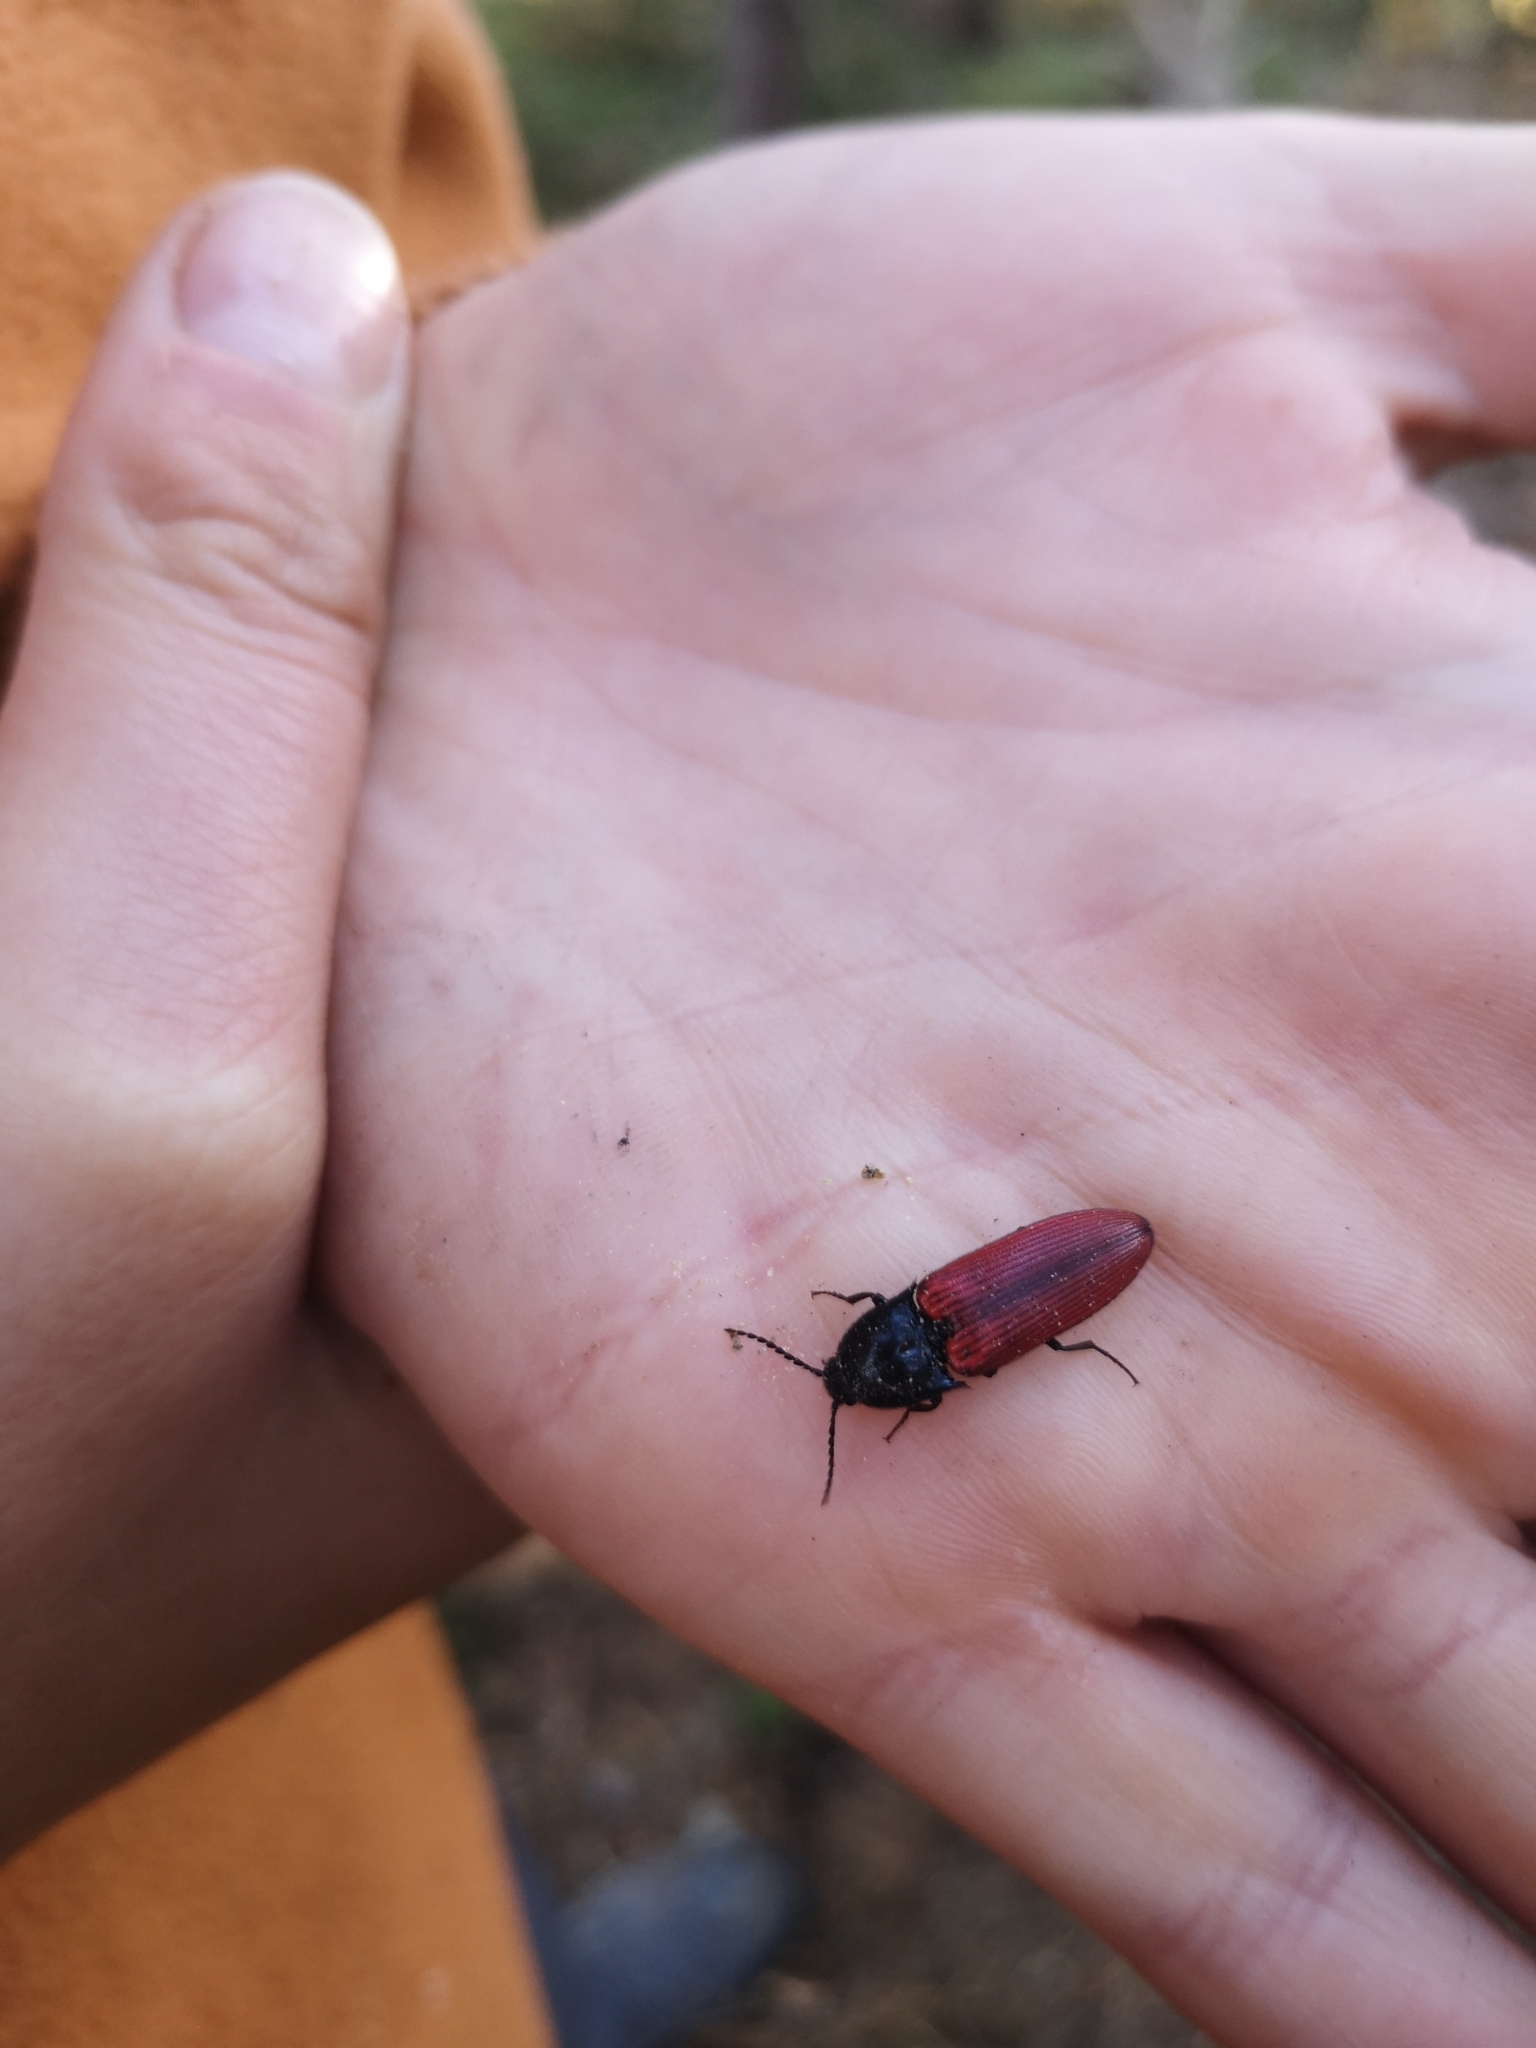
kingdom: Animalia
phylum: Arthropoda
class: Insecta
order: Coleoptera
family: Elateridae
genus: Ampedus
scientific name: Ampedus sanguineus
